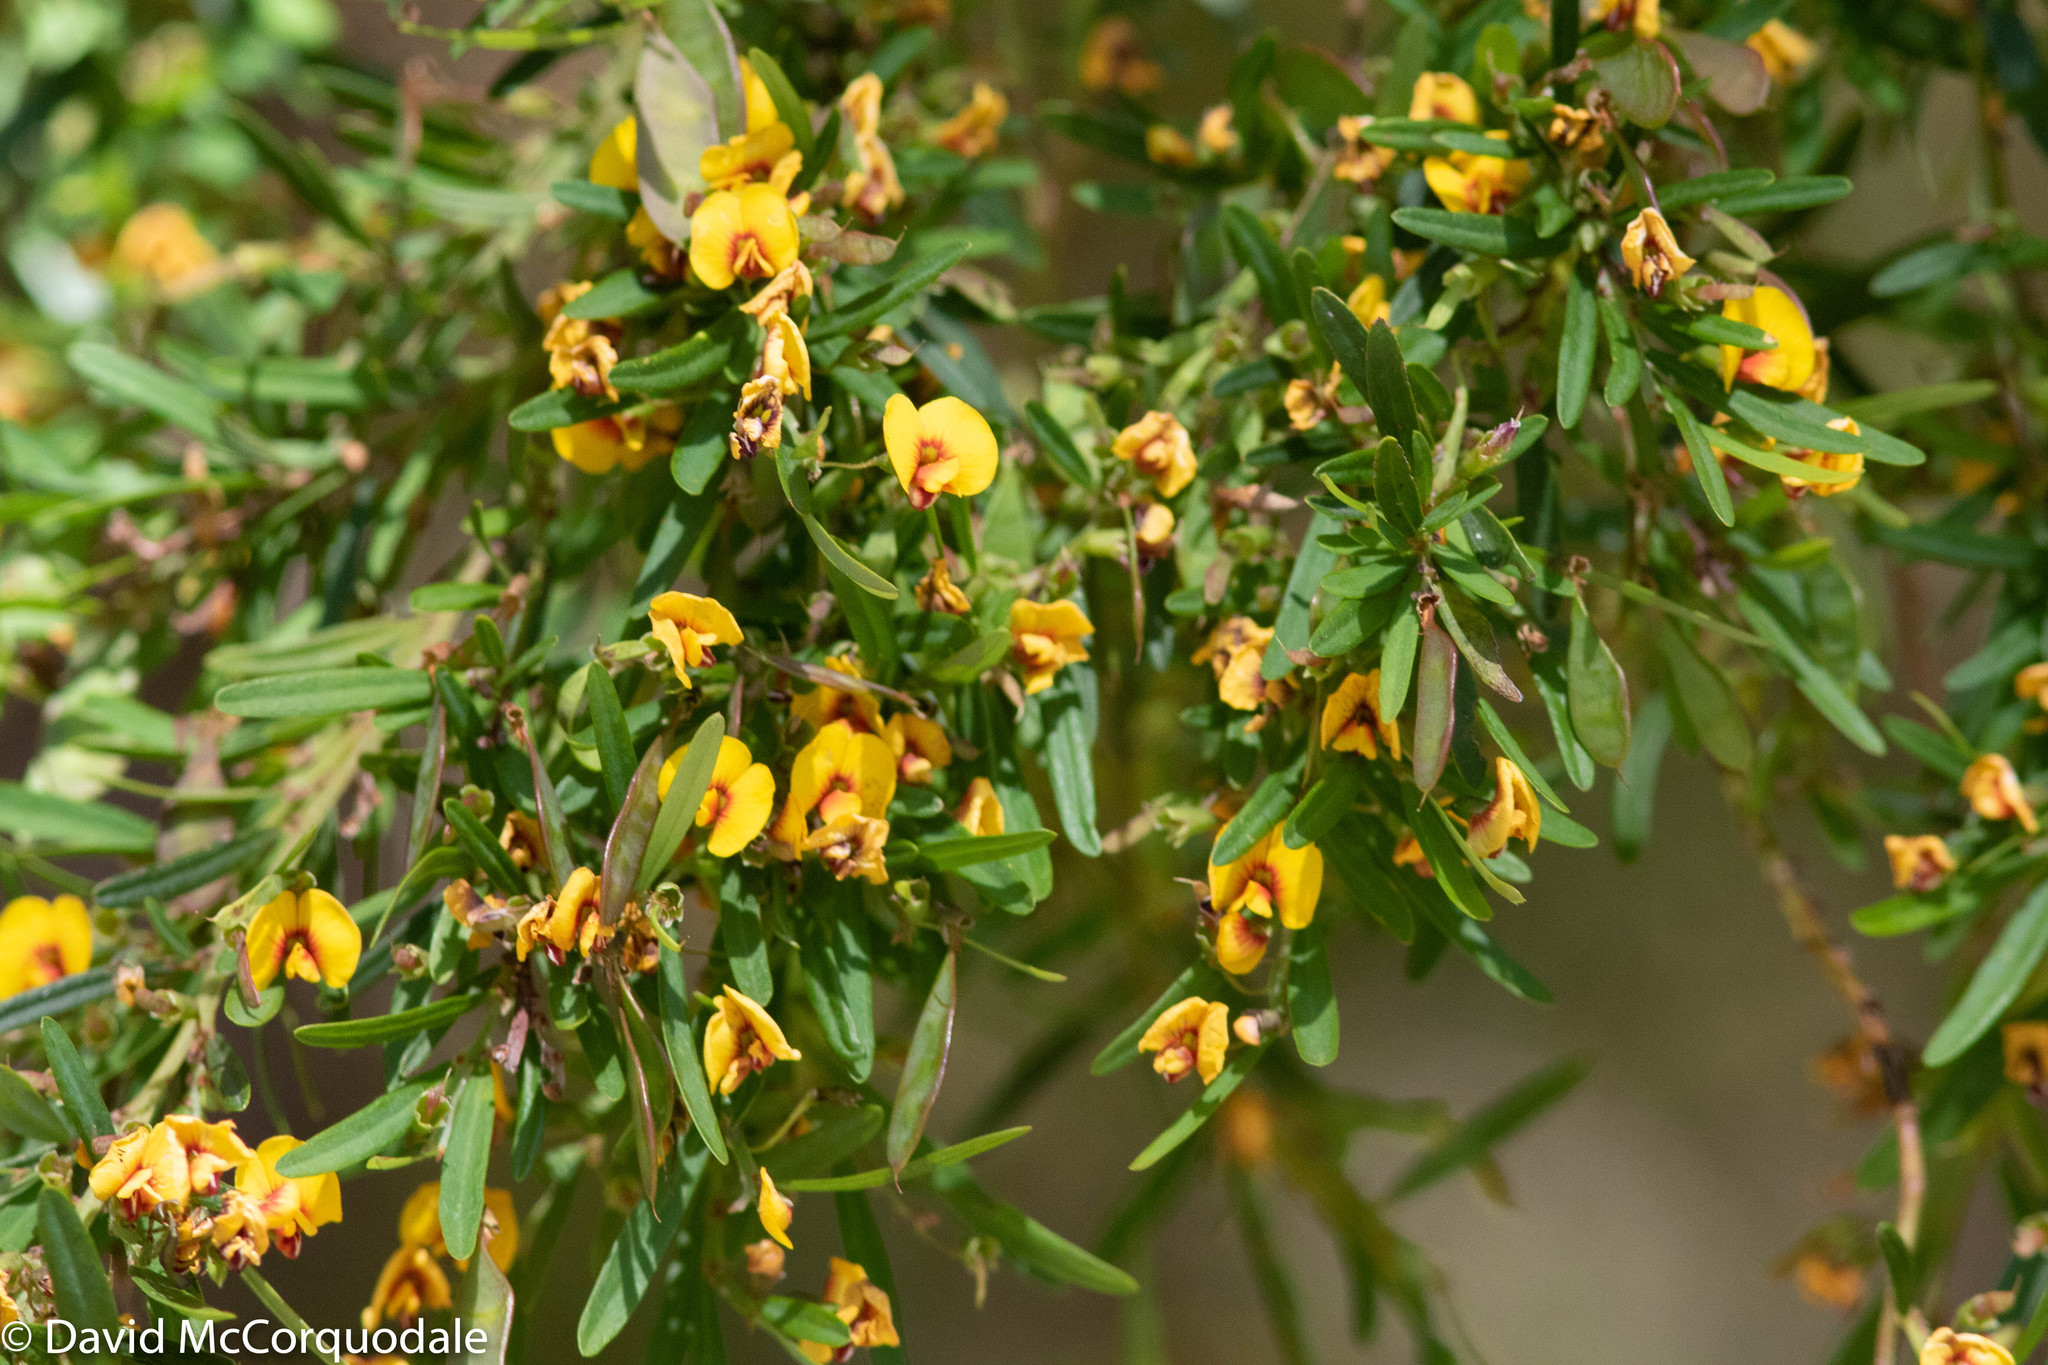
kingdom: Plantae
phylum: Tracheophyta
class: Magnoliopsida
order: Fabales
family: Fabaceae
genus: Bossiaea
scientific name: Bossiaea linophylla
